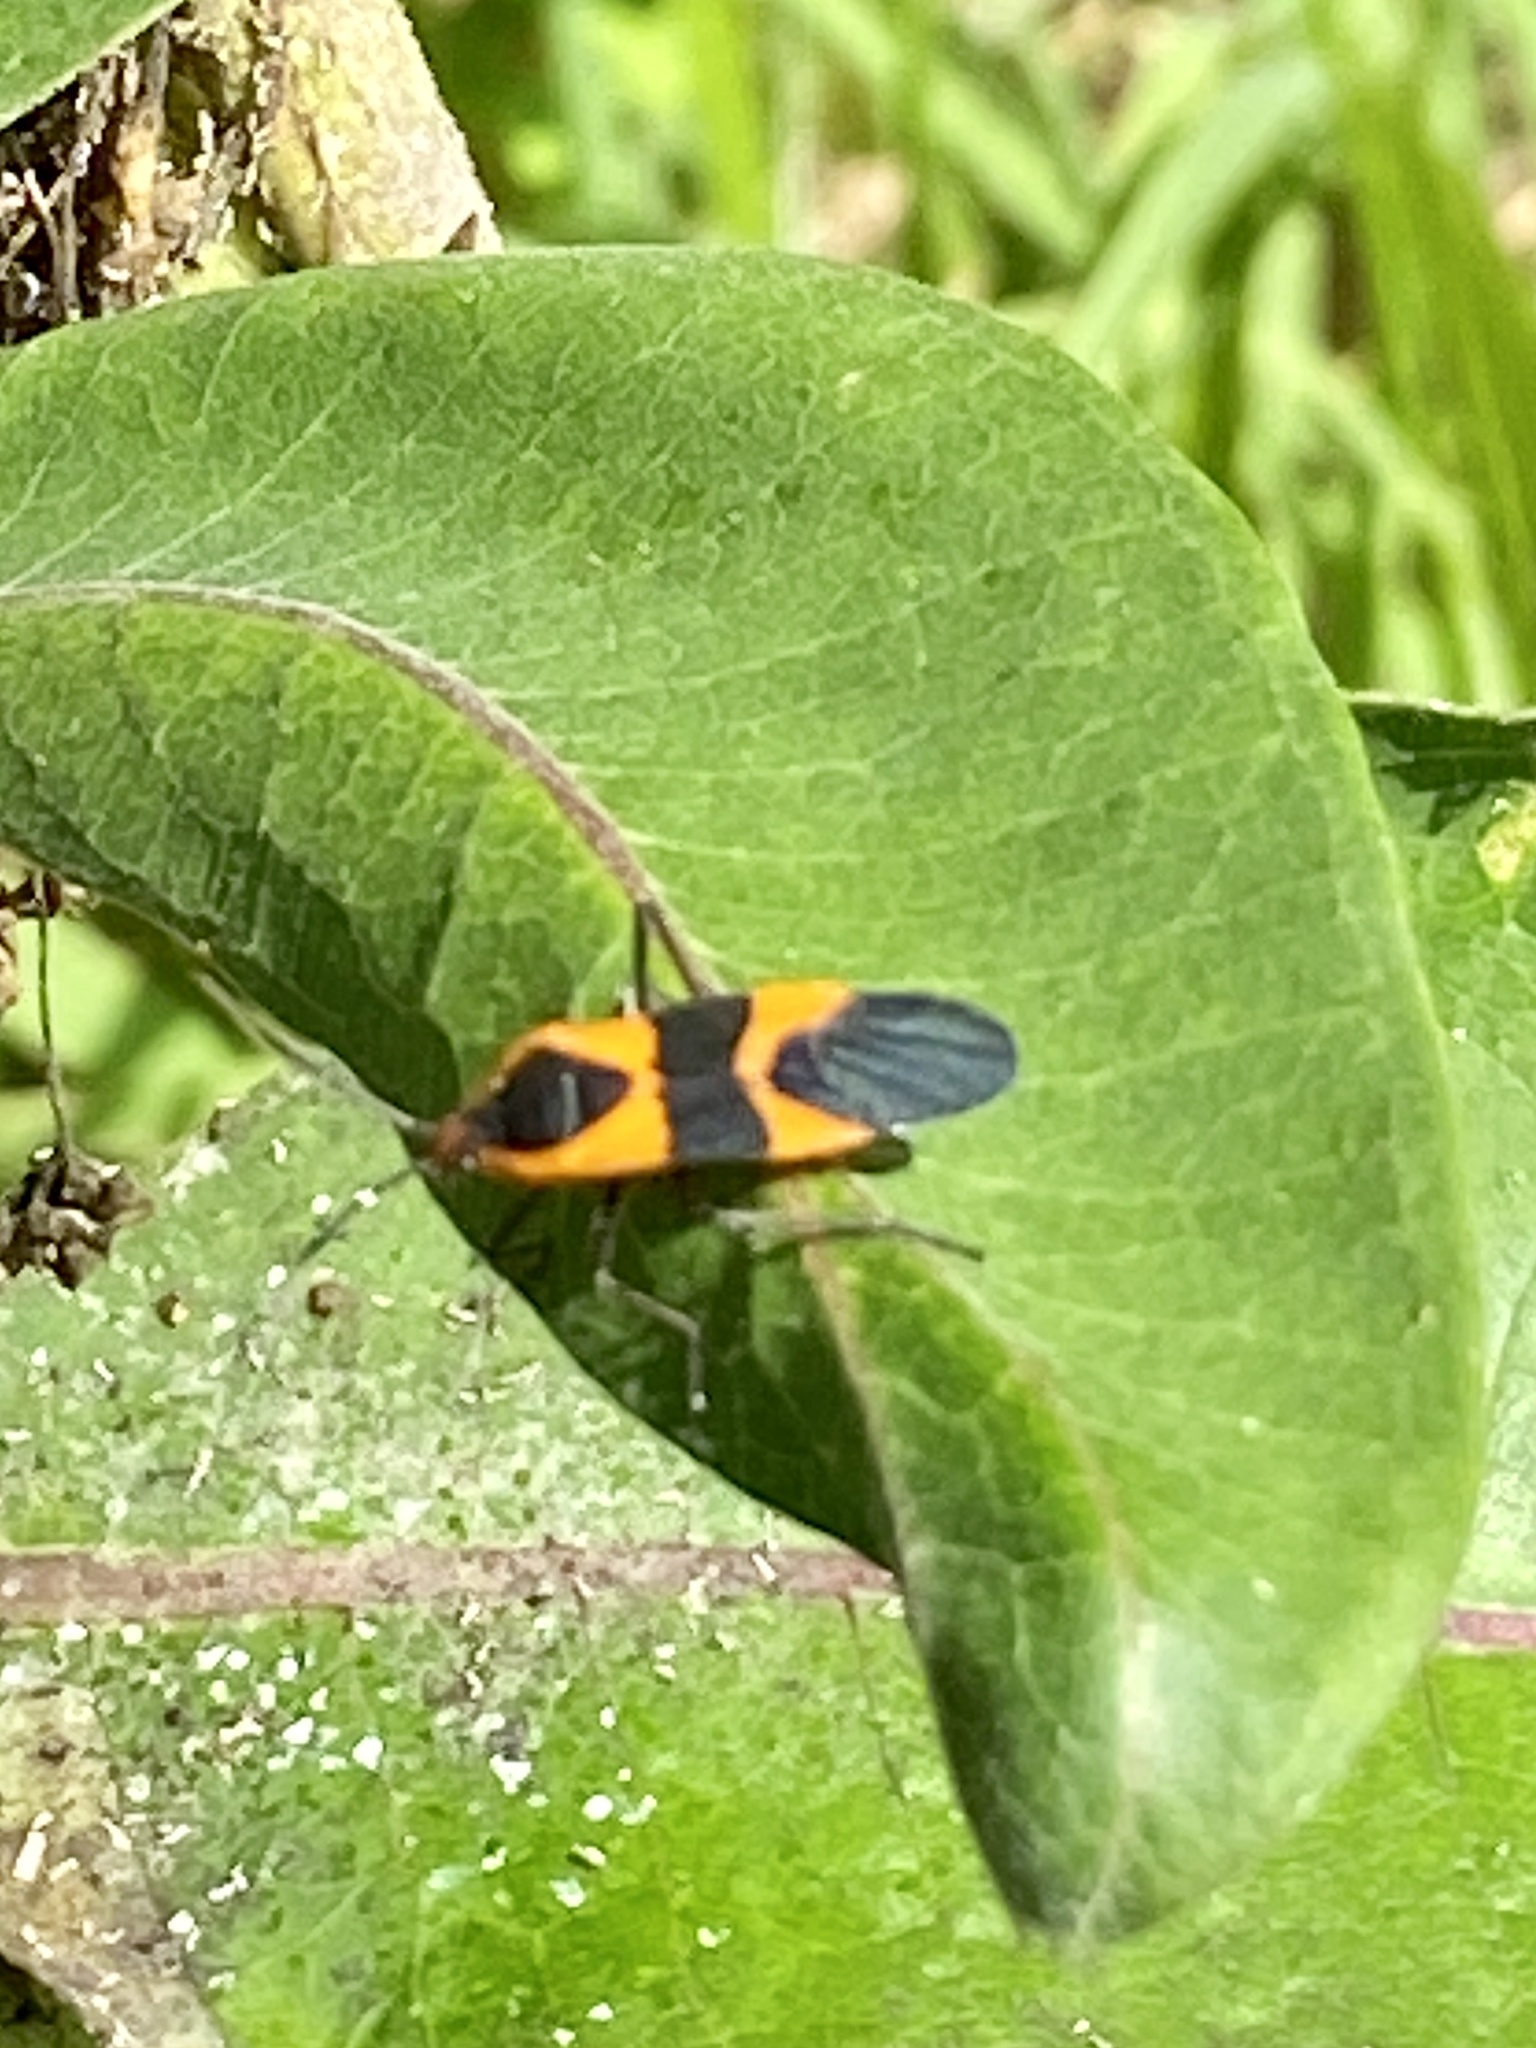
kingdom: Animalia
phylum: Arthropoda
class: Insecta
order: Hemiptera
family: Lygaeidae
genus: Oncopeltus
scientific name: Oncopeltus fasciatus
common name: Large milkweed bug
